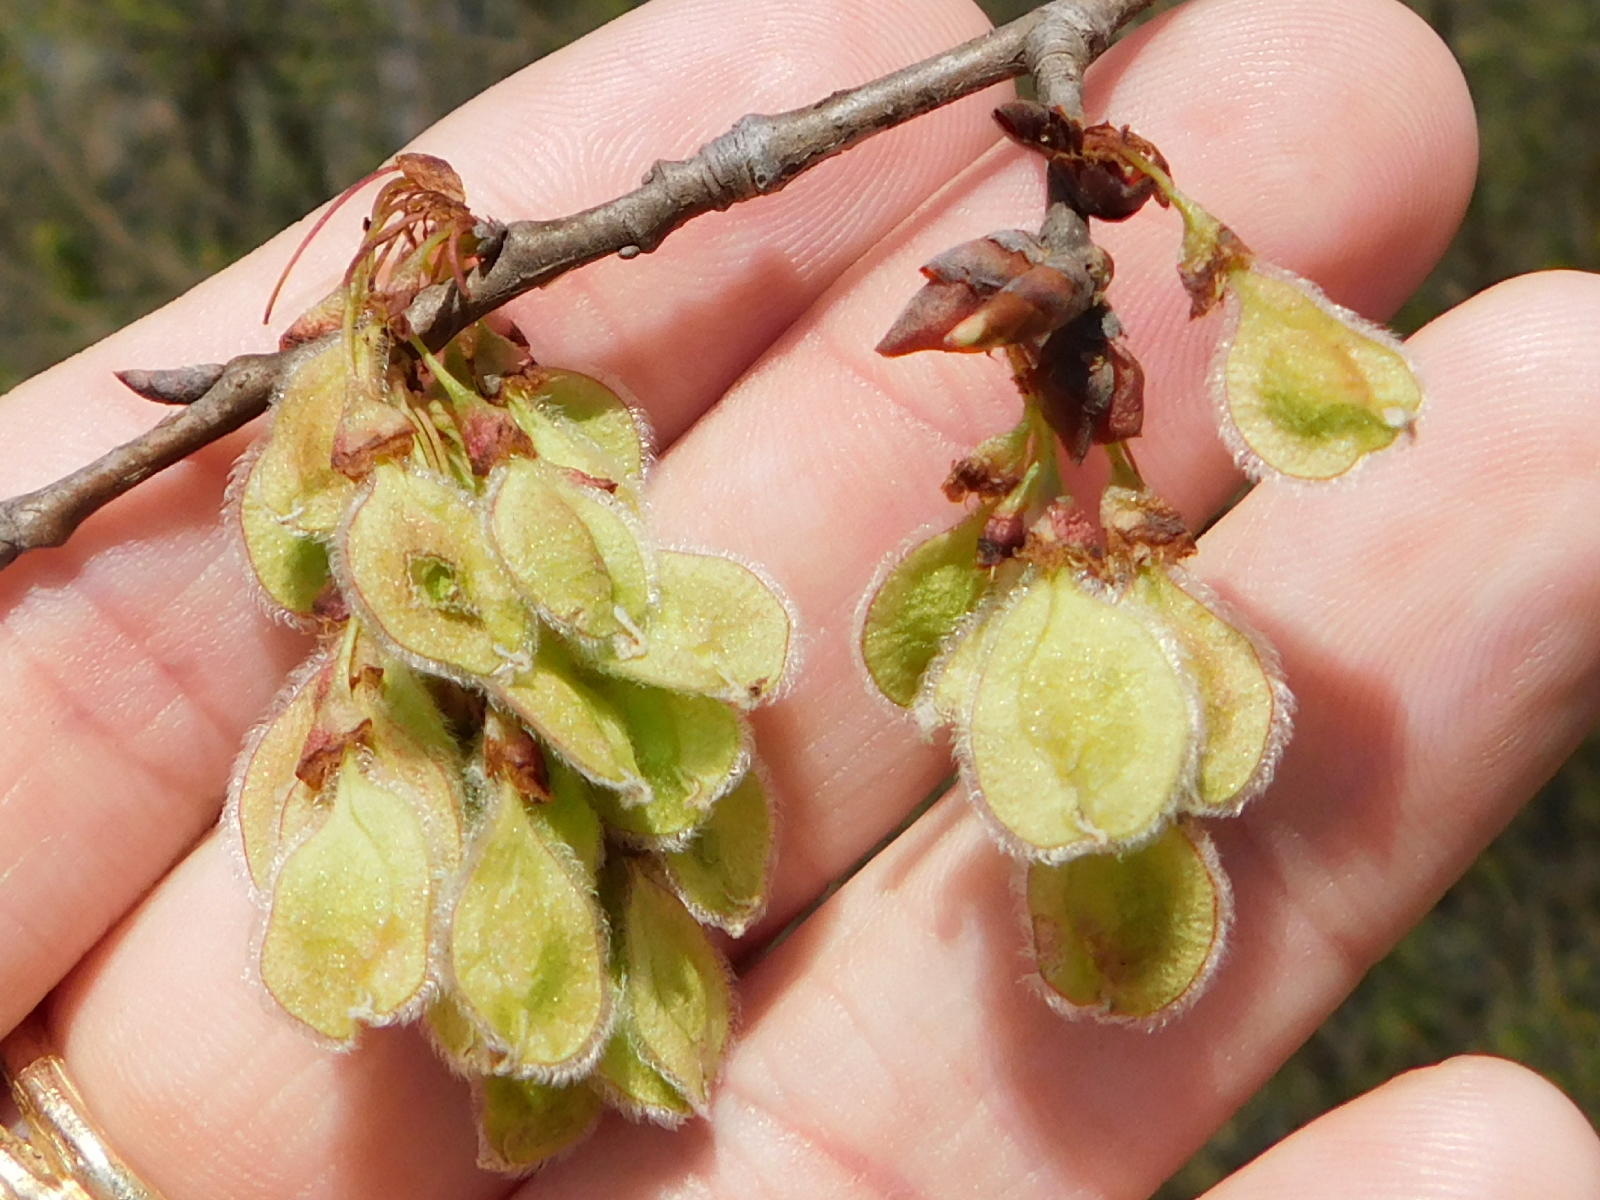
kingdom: Plantae
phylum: Tracheophyta
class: Magnoliopsida
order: Rosales
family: Ulmaceae
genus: Ulmus
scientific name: Ulmus americana
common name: American elm
